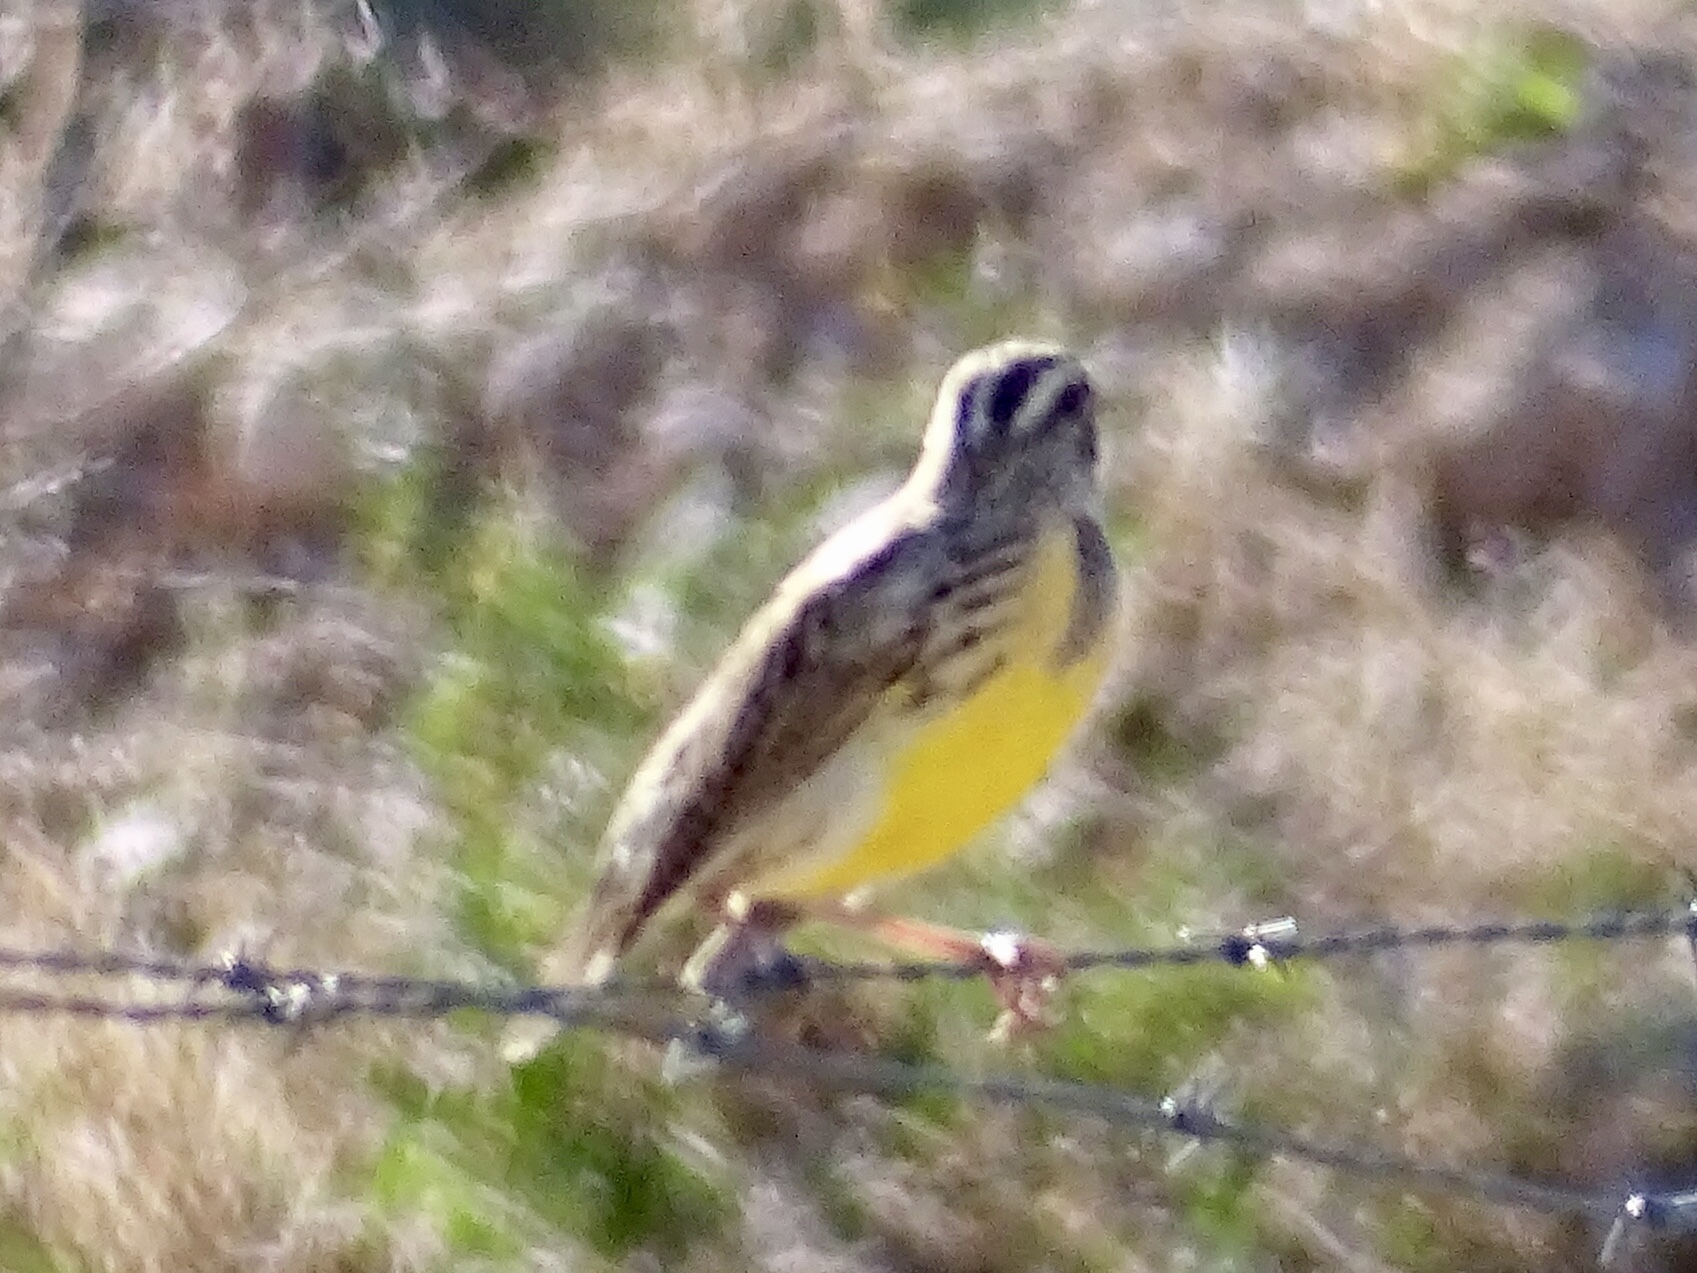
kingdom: Animalia
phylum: Chordata
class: Aves
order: Passeriformes
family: Icteridae
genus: Sturnella
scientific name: Sturnella neglecta
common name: Western meadowlark
